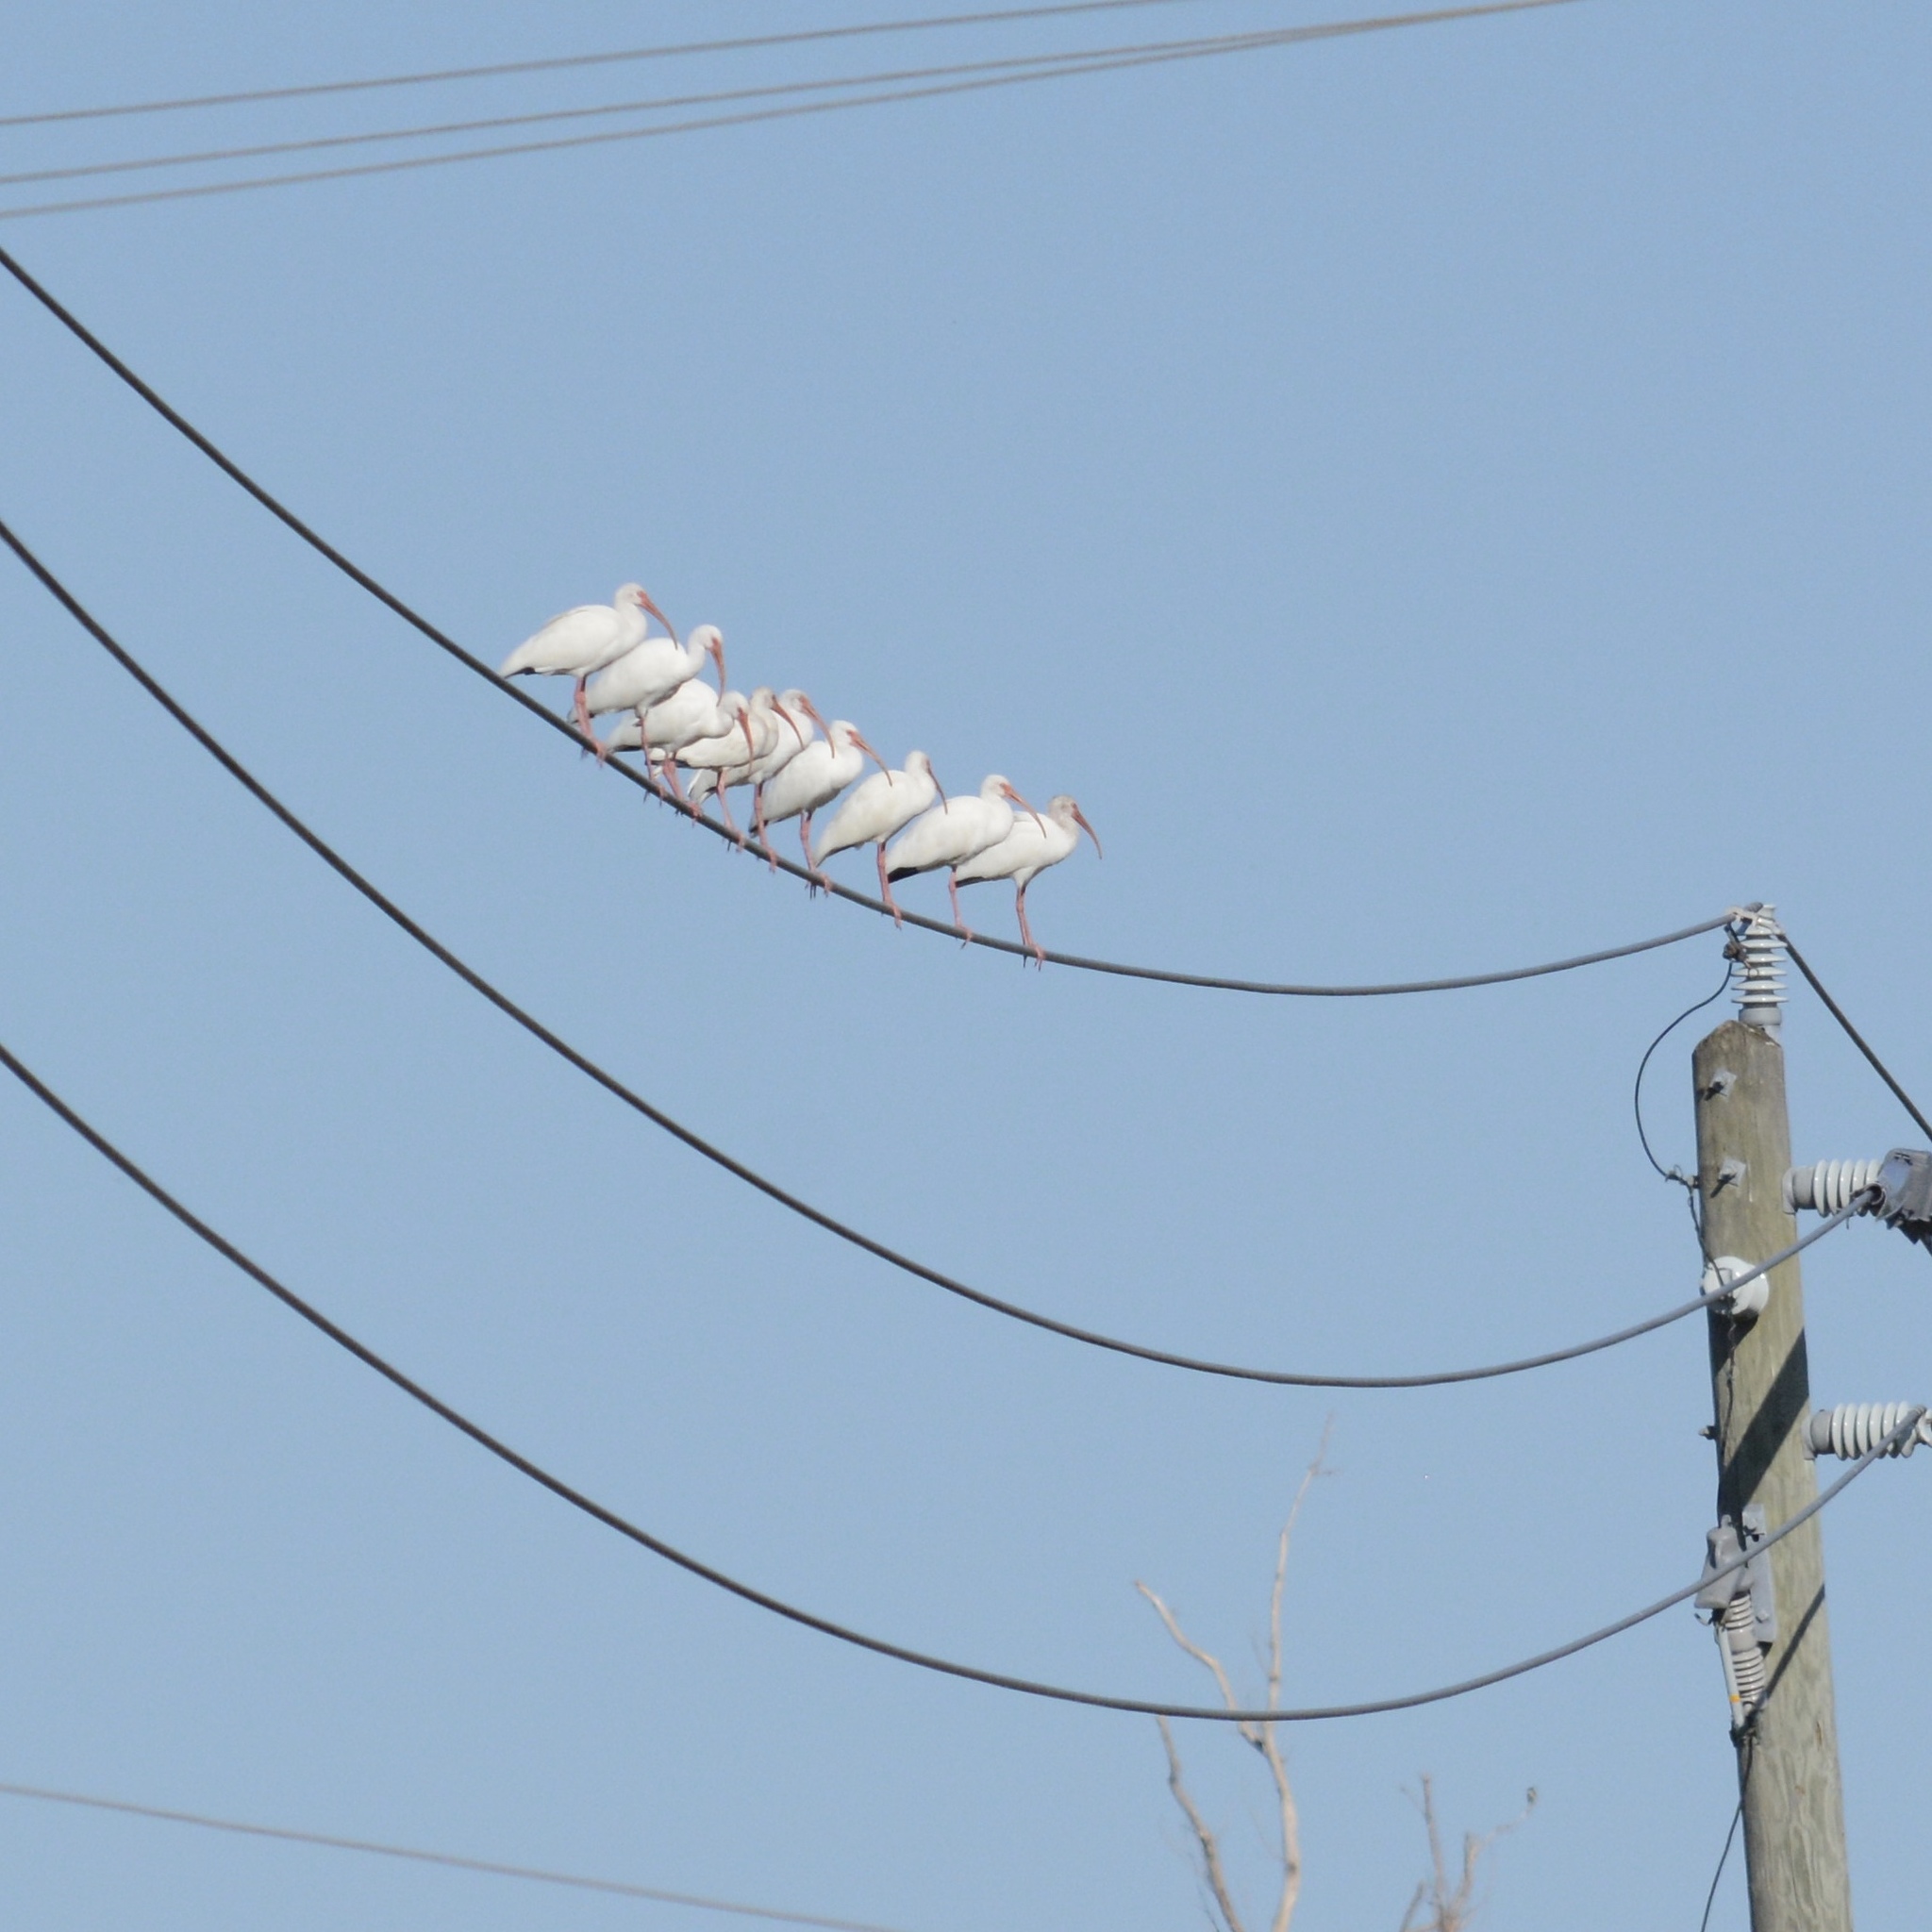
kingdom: Animalia
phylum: Chordata
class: Aves
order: Pelecaniformes
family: Threskiornithidae
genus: Eudocimus
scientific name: Eudocimus albus
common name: White ibis
